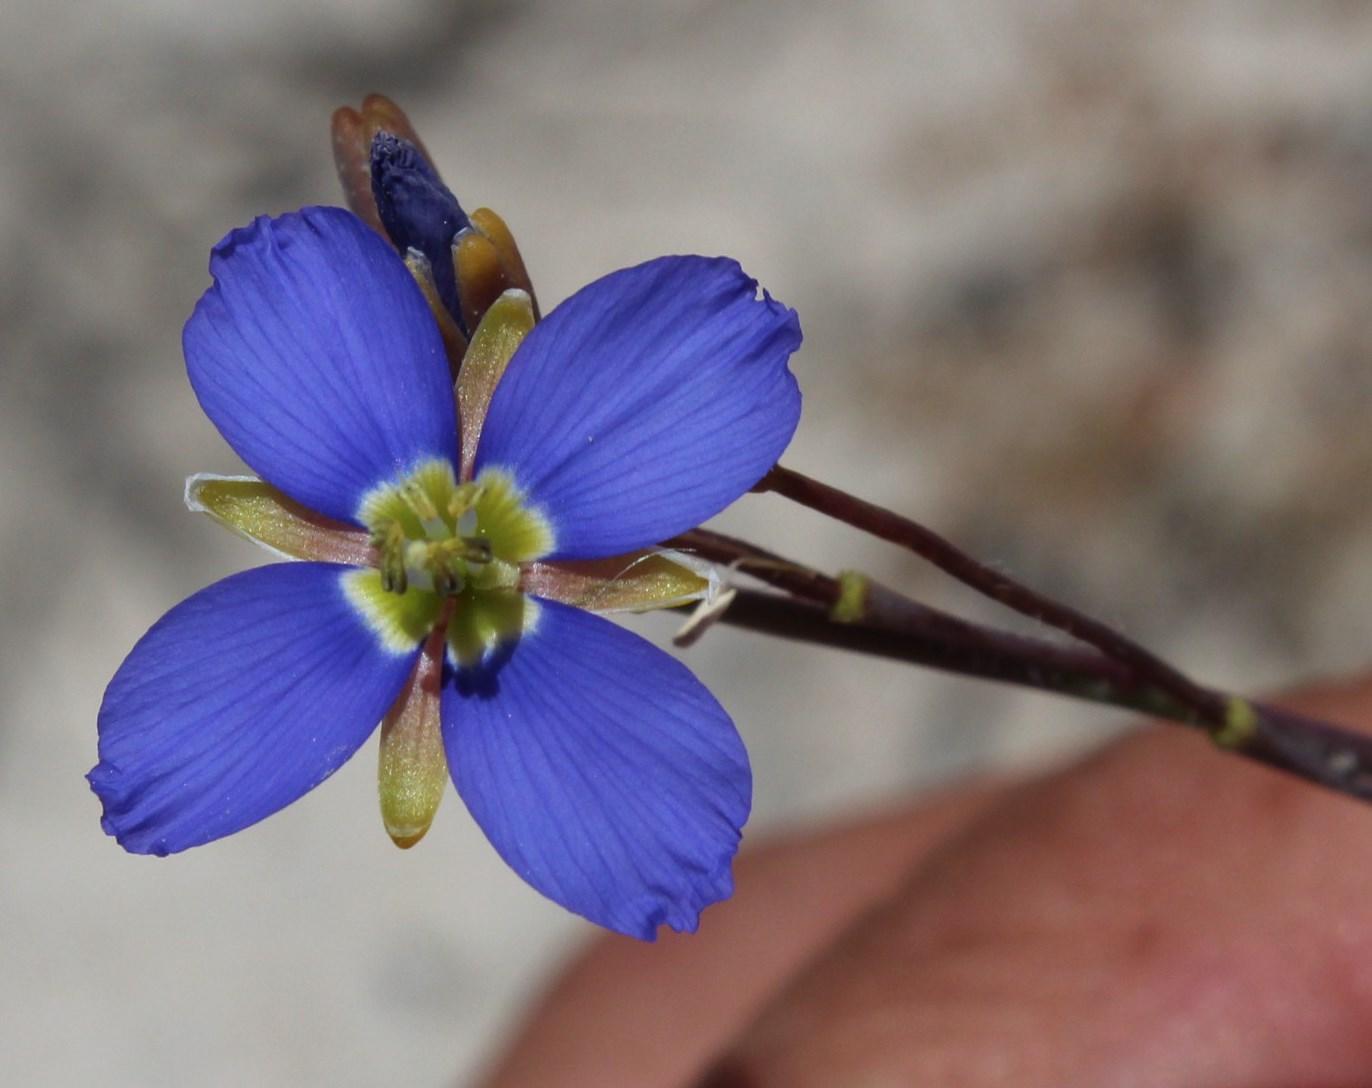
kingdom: Plantae
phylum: Tracheophyta
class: Magnoliopsida
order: Brassicales
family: Brassicaceae
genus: Heliophila
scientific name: Heliophila africana
